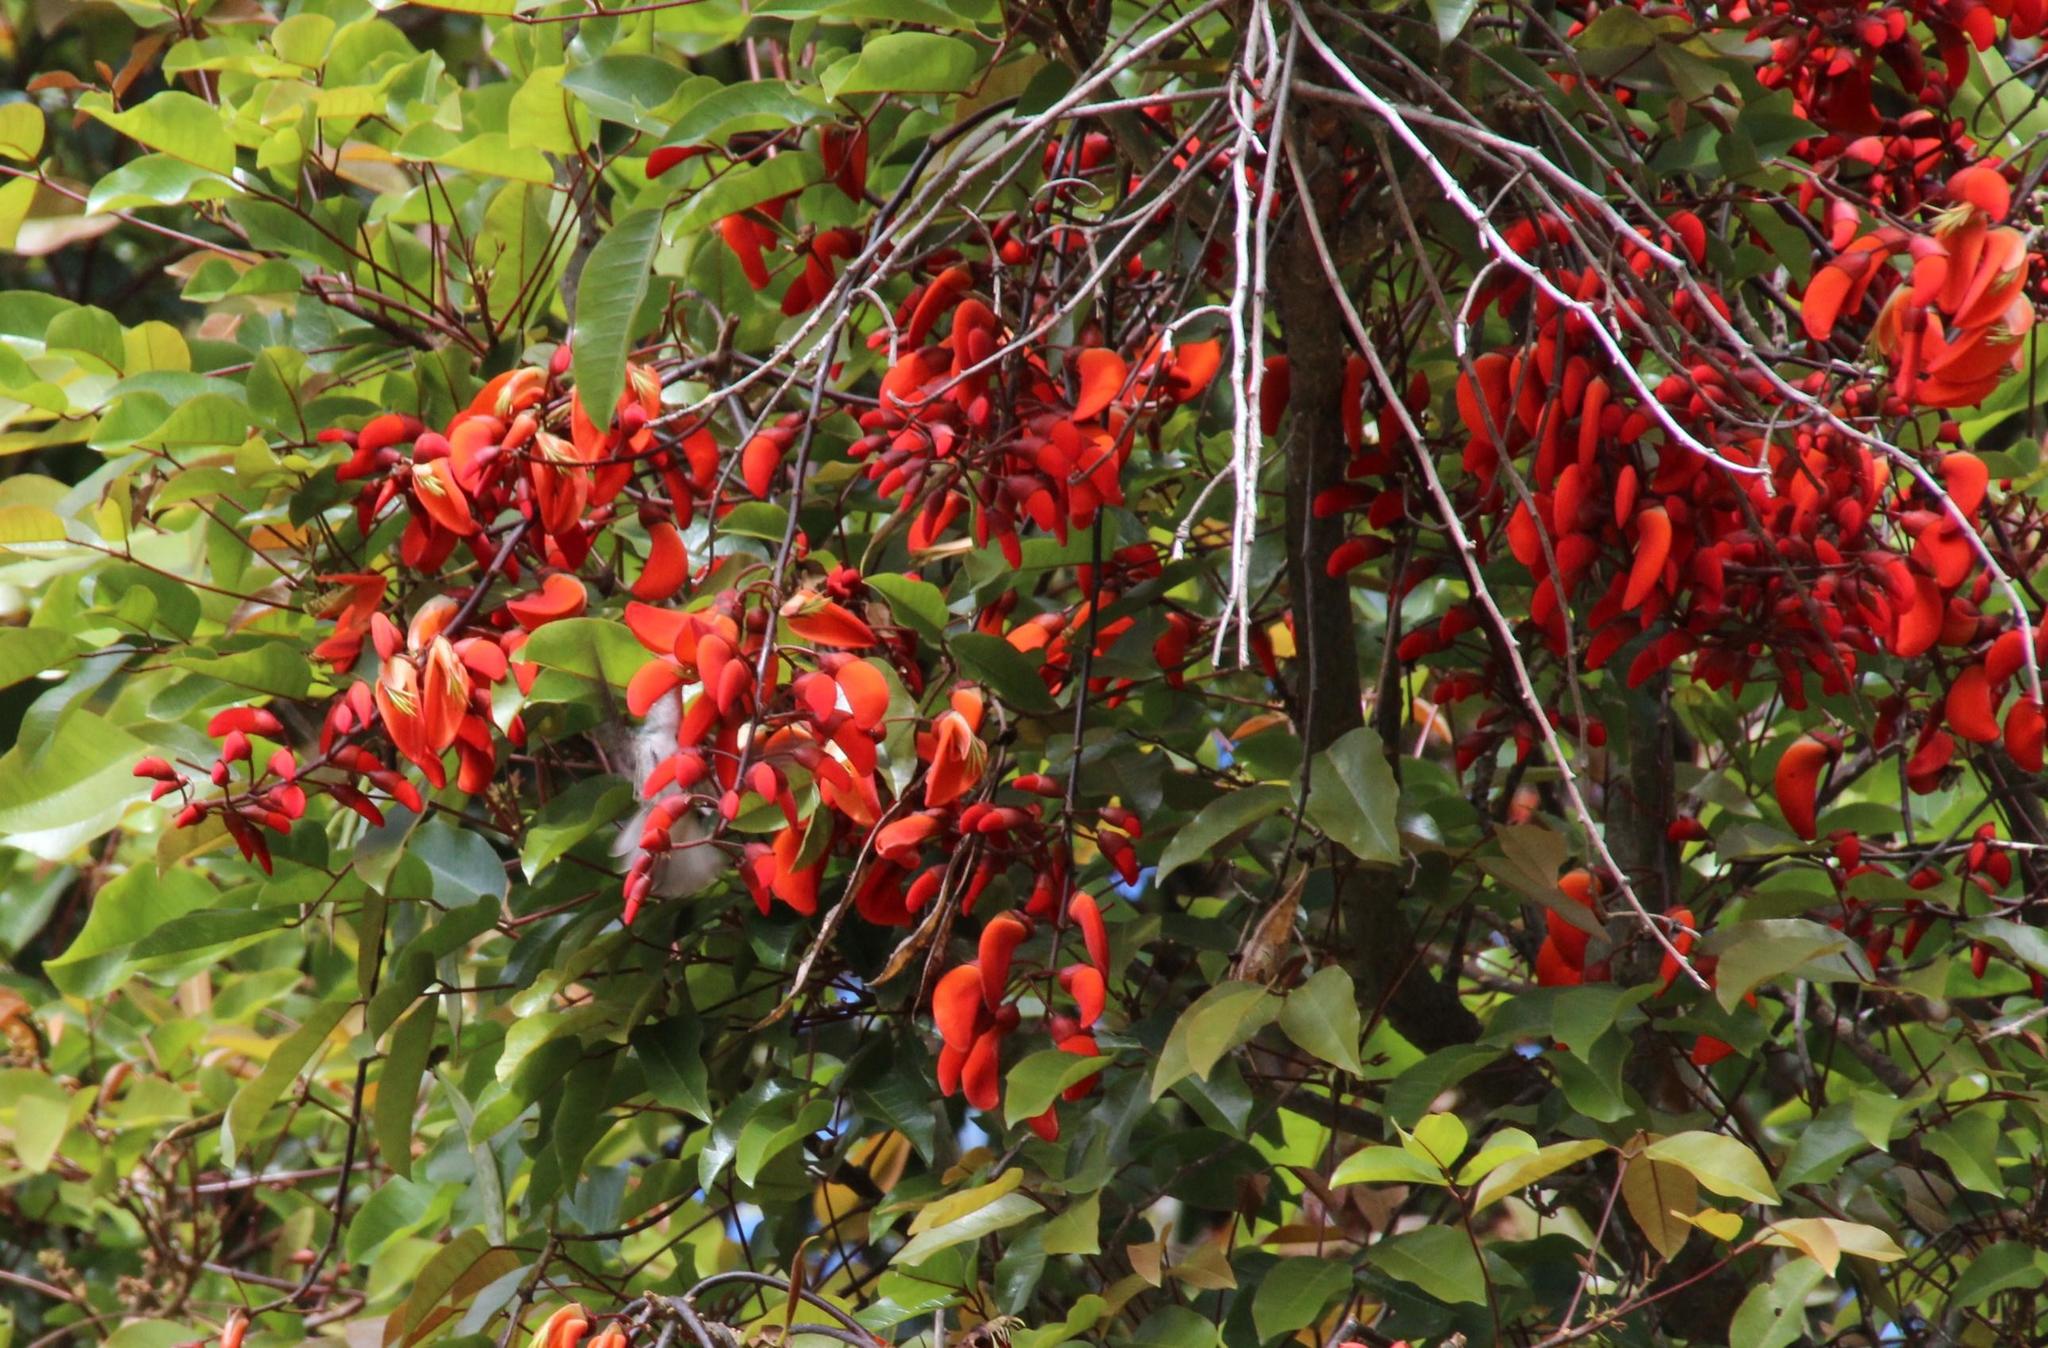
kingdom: Animalia
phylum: Chordata
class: Aves
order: Apodiformes
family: Trochilidae
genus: Elliotomyia
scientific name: Elliotomyia chionogaster
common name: White-bellied hummingbird
